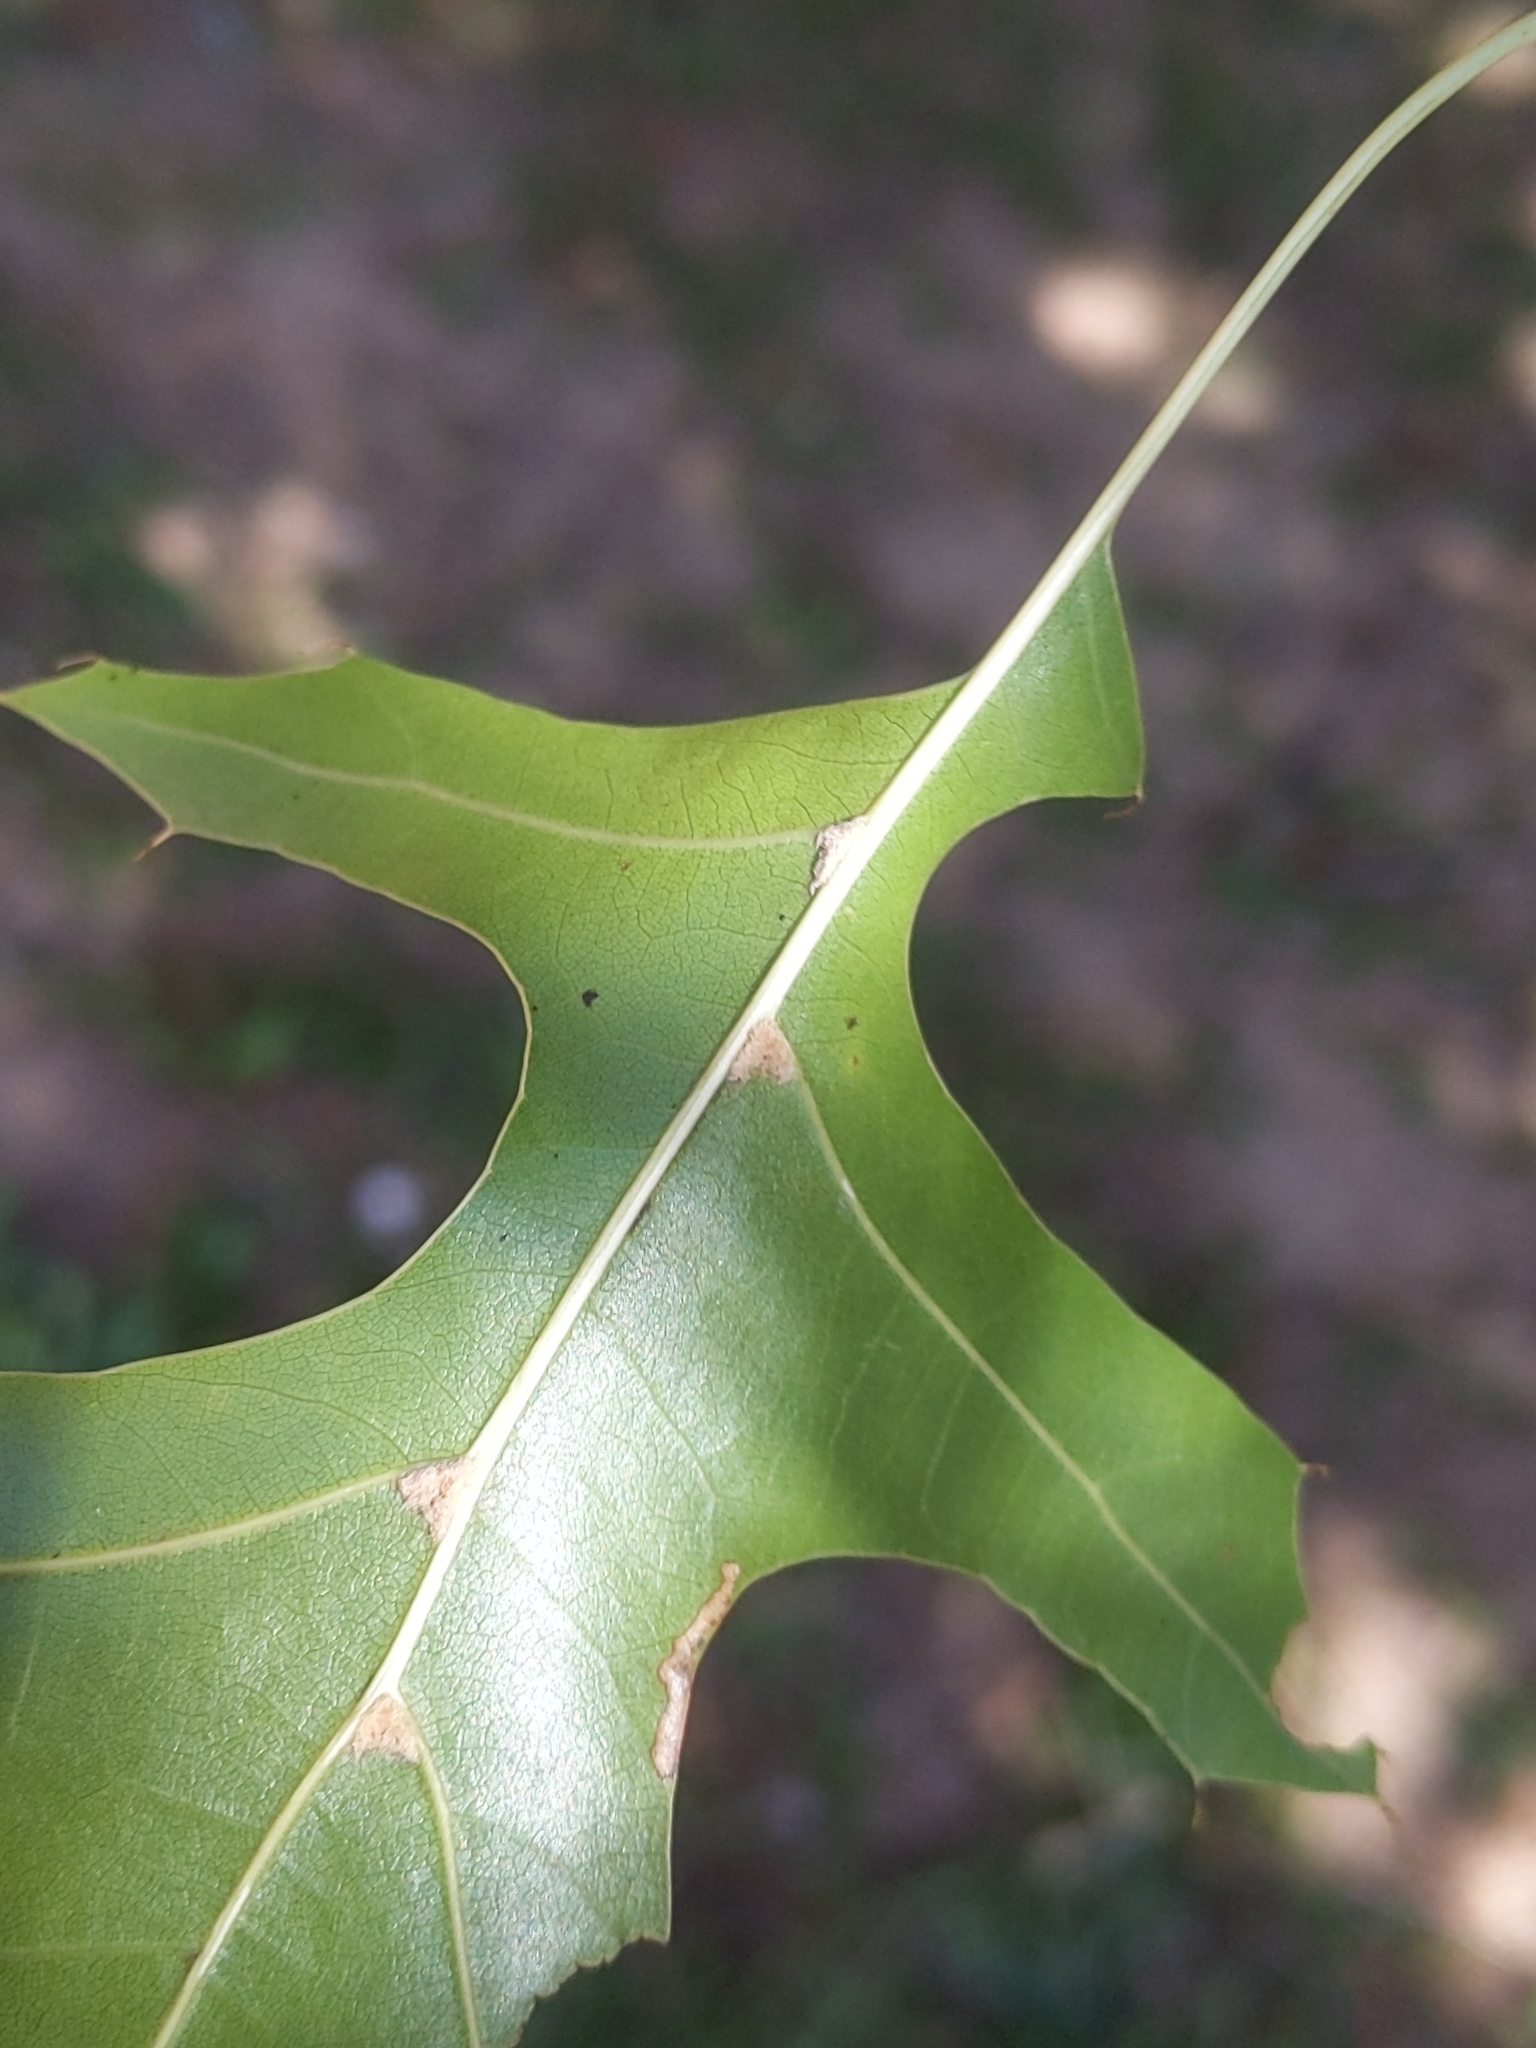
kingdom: Plantae
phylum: Tracheophyta
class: Magnoliopsida
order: Fagales
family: Fagaceae
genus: Quercus
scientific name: Quercus palustris
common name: Pin oak
